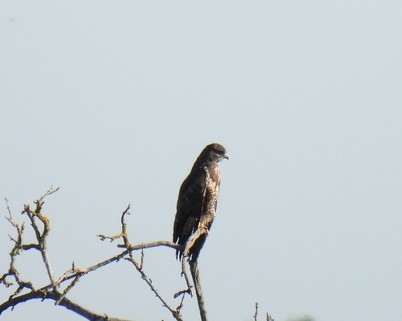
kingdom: Animalia
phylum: Chordata
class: Aves
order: Accipitriformes
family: Accipitridae
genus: Buteo
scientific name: Buteo buteo
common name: Common buzzard
